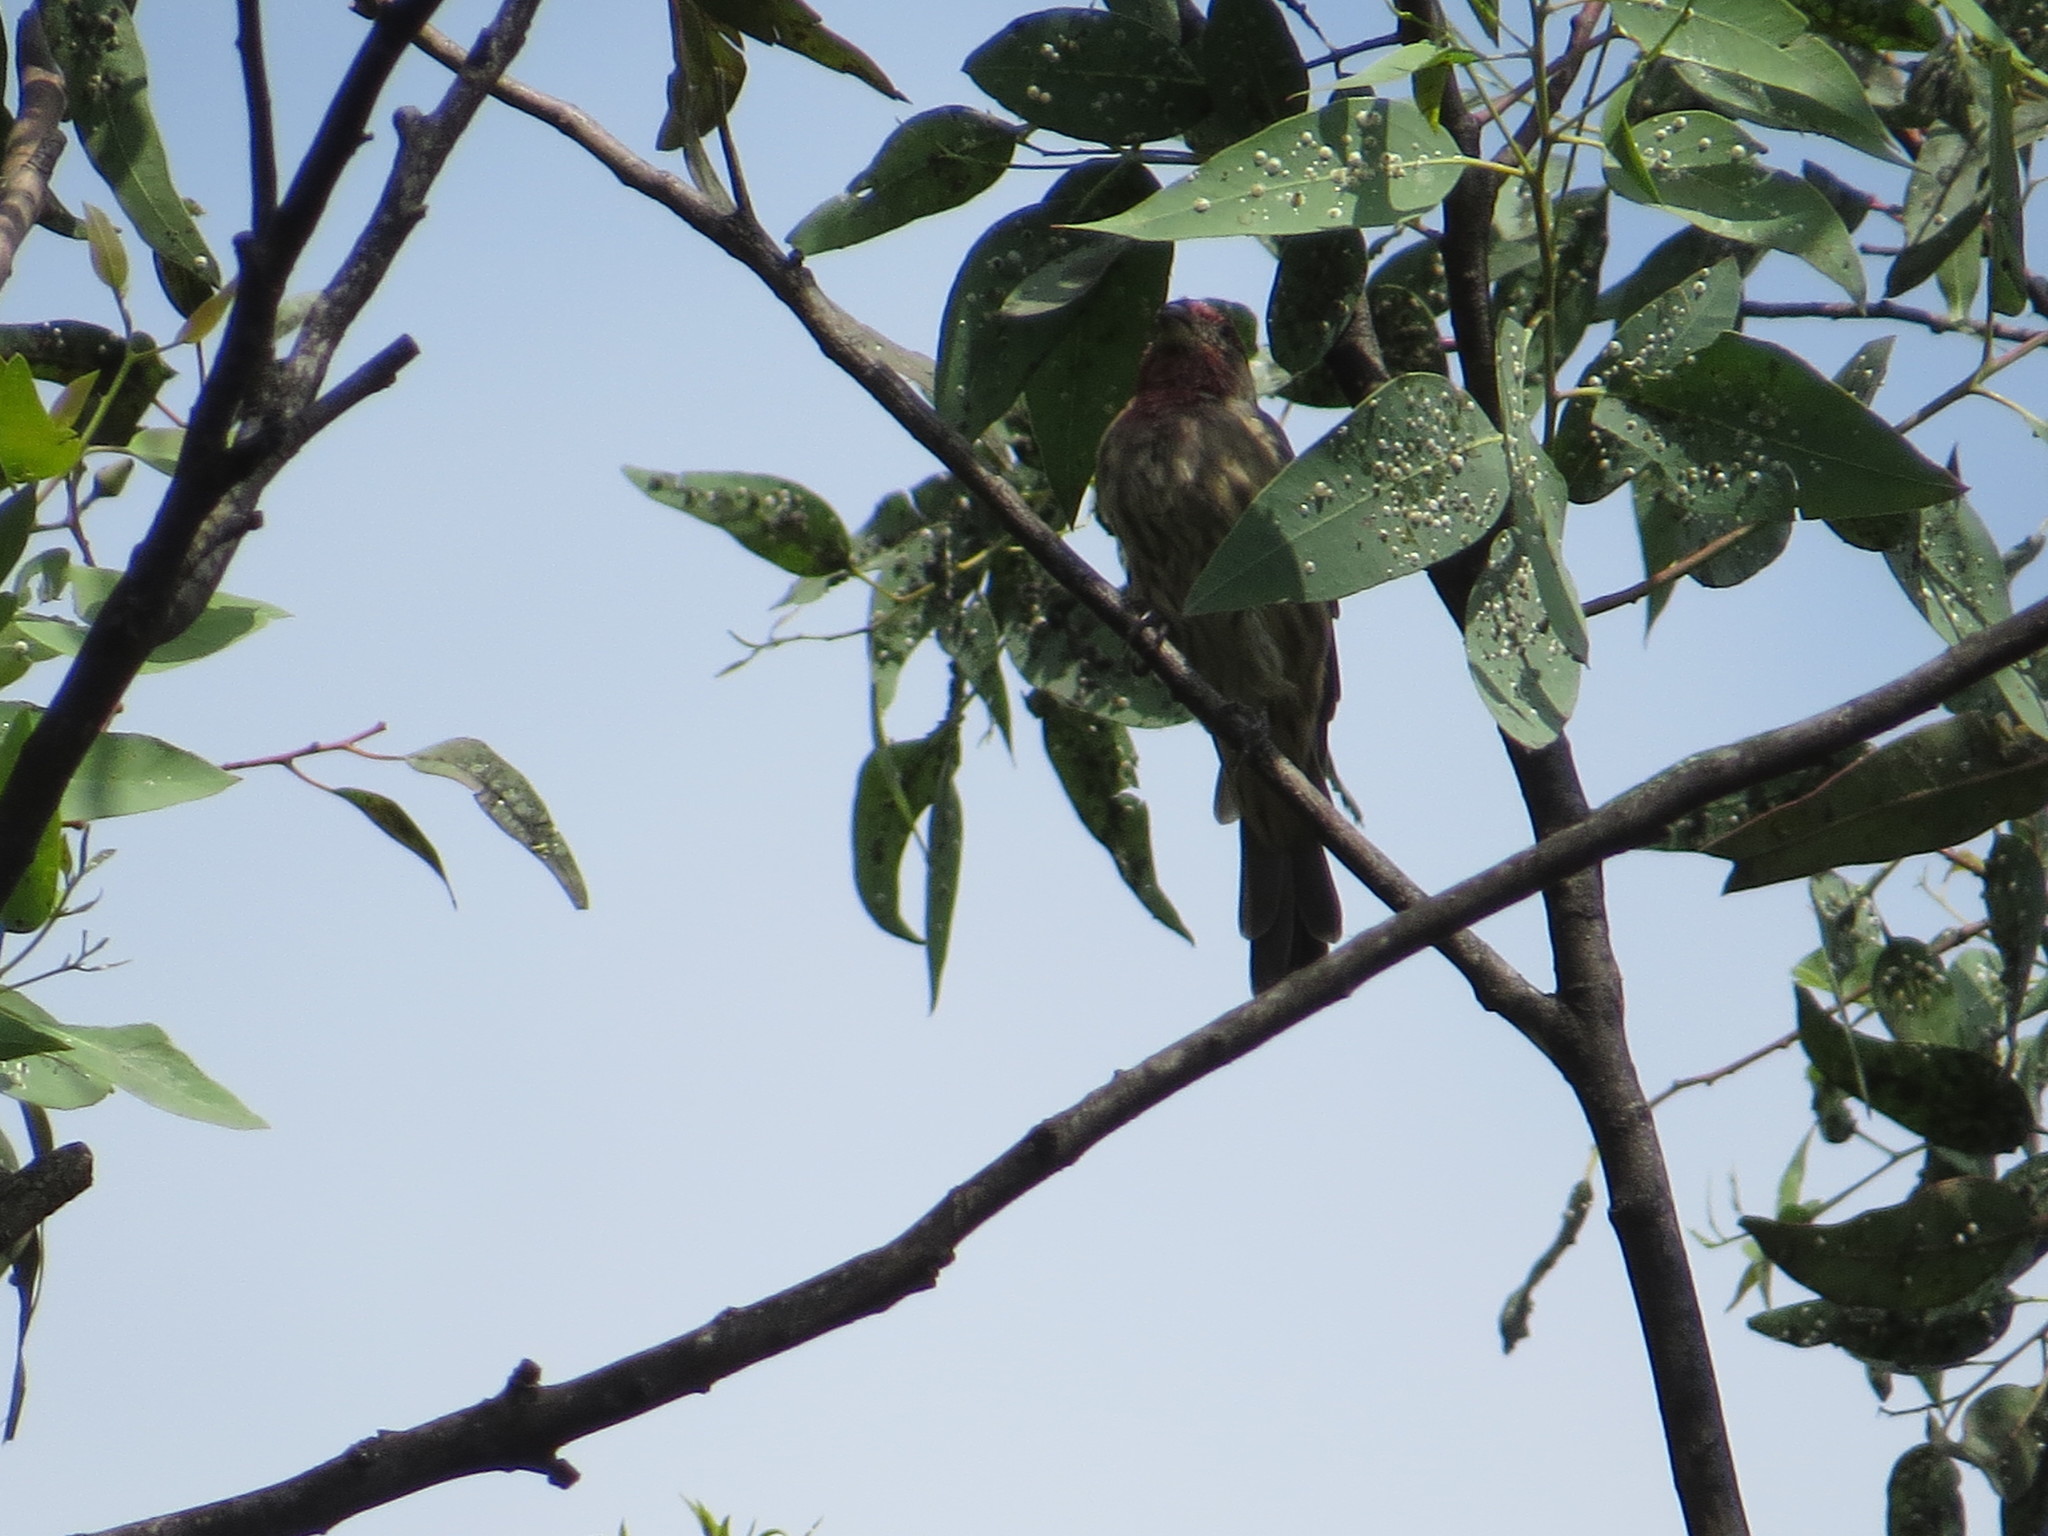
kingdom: Animalia
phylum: Chordata
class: Aves
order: Passeriformes
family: Fringillidae
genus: Haemorhous
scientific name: Haemorhous mexicanus
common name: House finch
